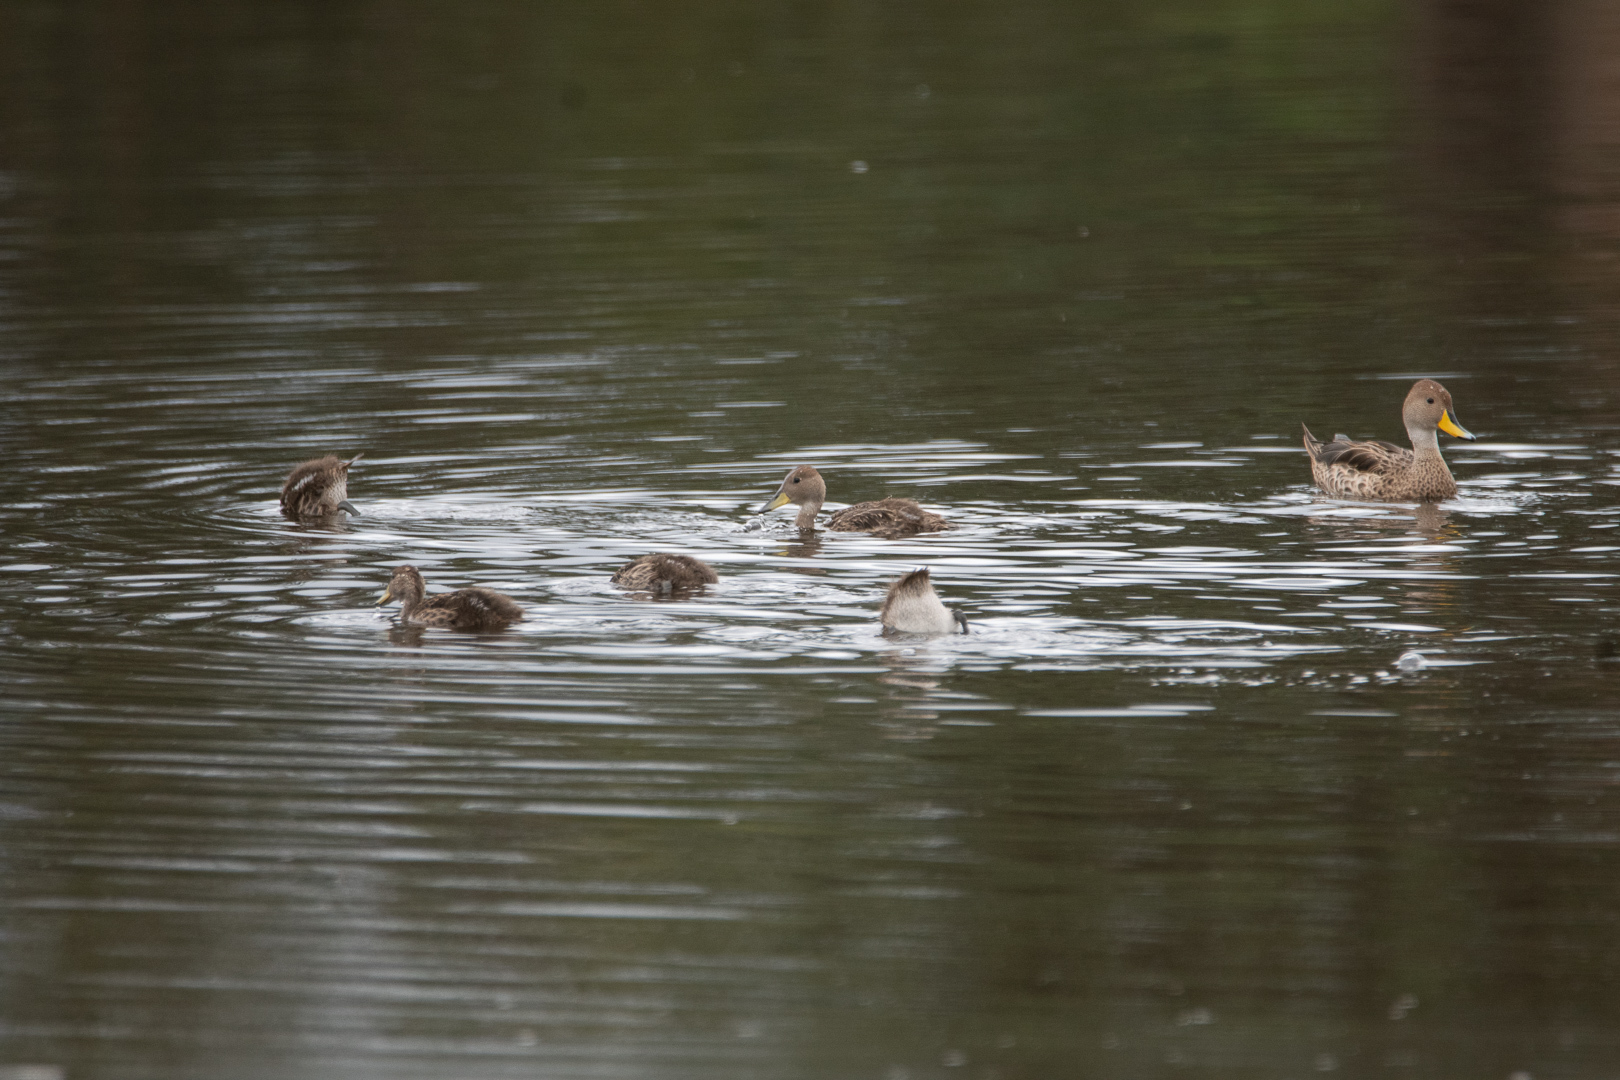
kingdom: Animalia
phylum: Chordata
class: Aves
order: Anseriformes
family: Anatidae
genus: Anas
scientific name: Anas georgica
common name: Yellow-billed pintail
